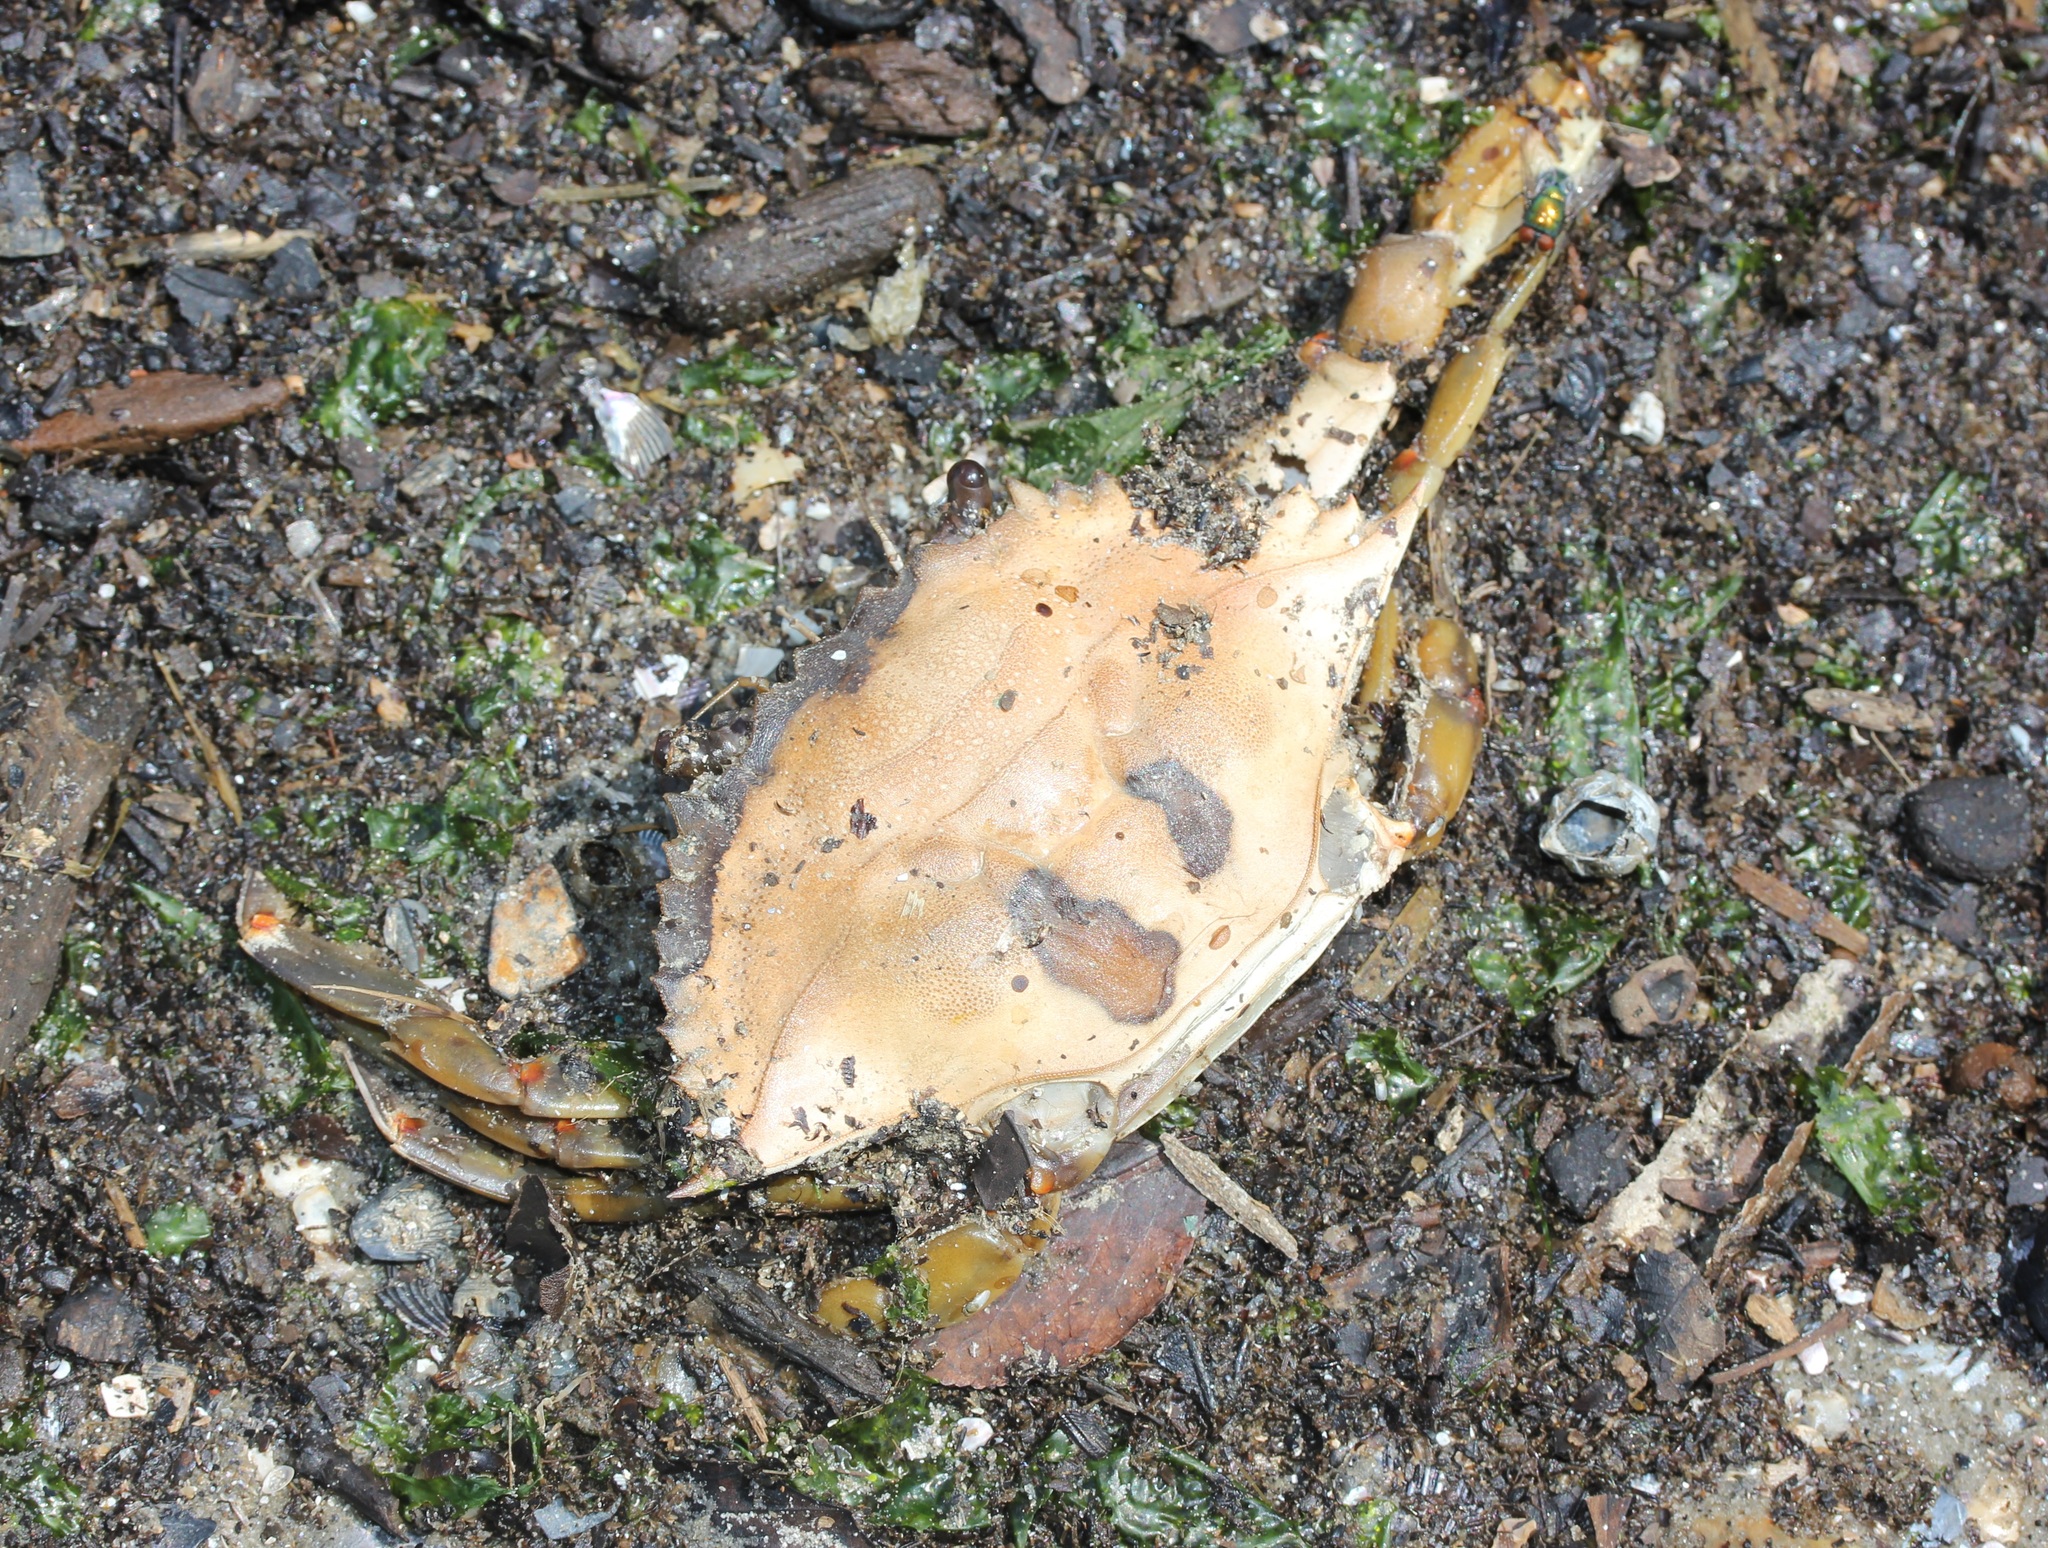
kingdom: Animalia
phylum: Arthropoda
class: Malacostraca
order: Decapoda
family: Portunidae
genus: Callinectes
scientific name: Callinectes sapidus
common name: Blue crab
